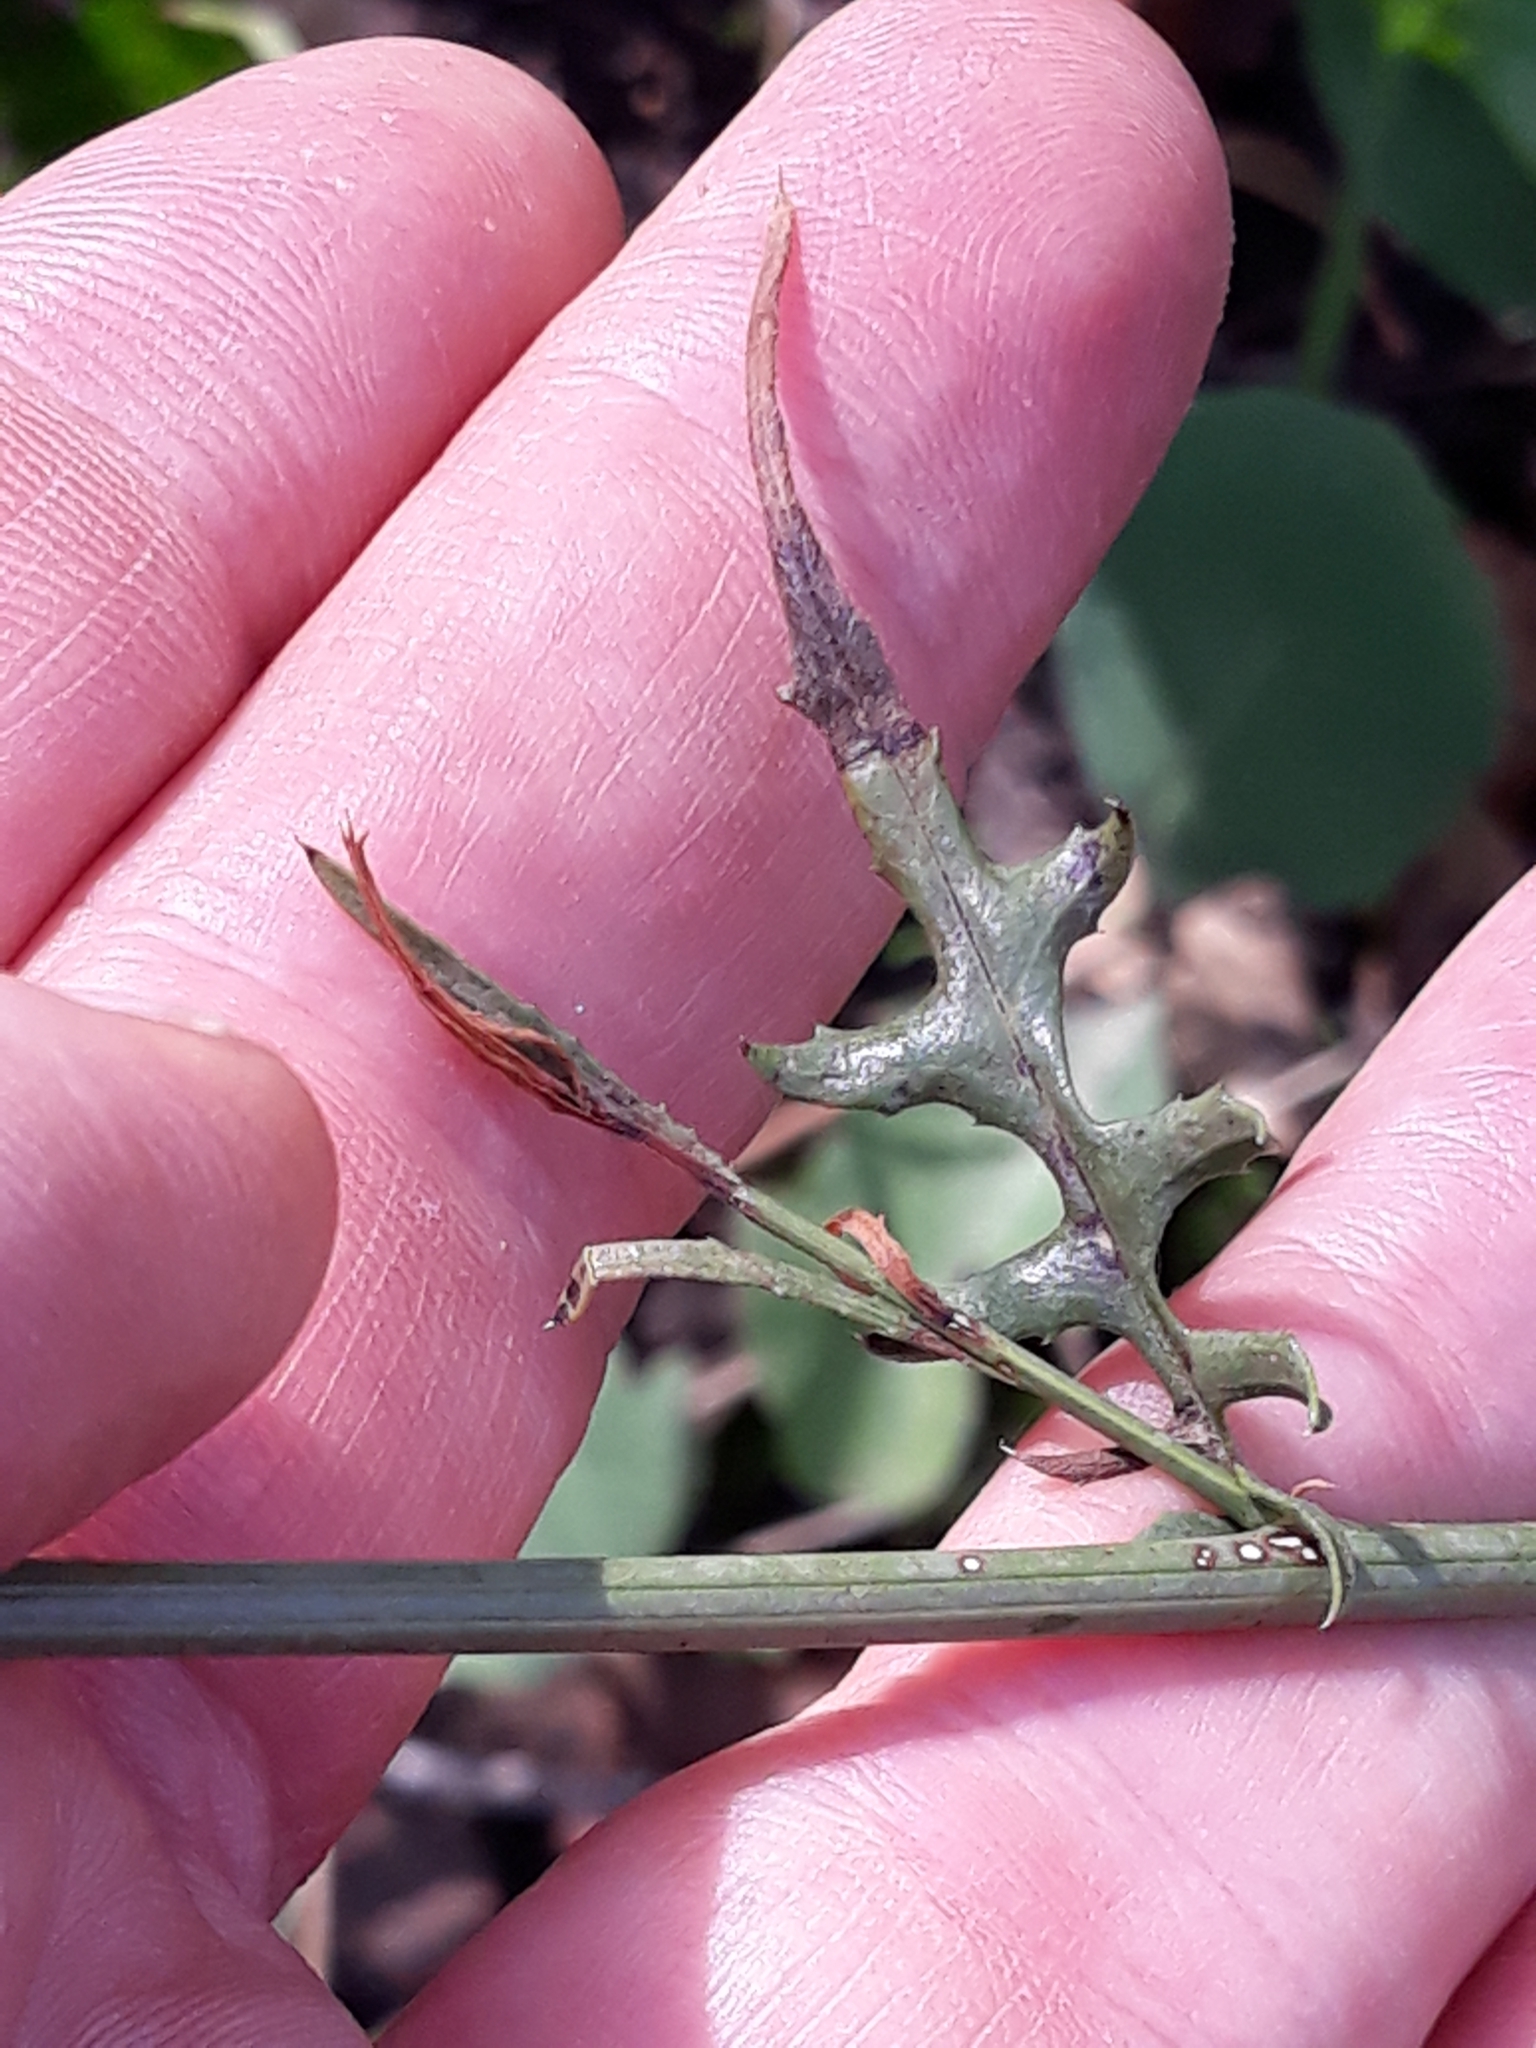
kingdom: Plantae
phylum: Tracheophyta
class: Magnoliopsida
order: Asterales
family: Asteraceae
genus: Mantisalca
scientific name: Mantisalca salmantica
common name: Dagger flower
